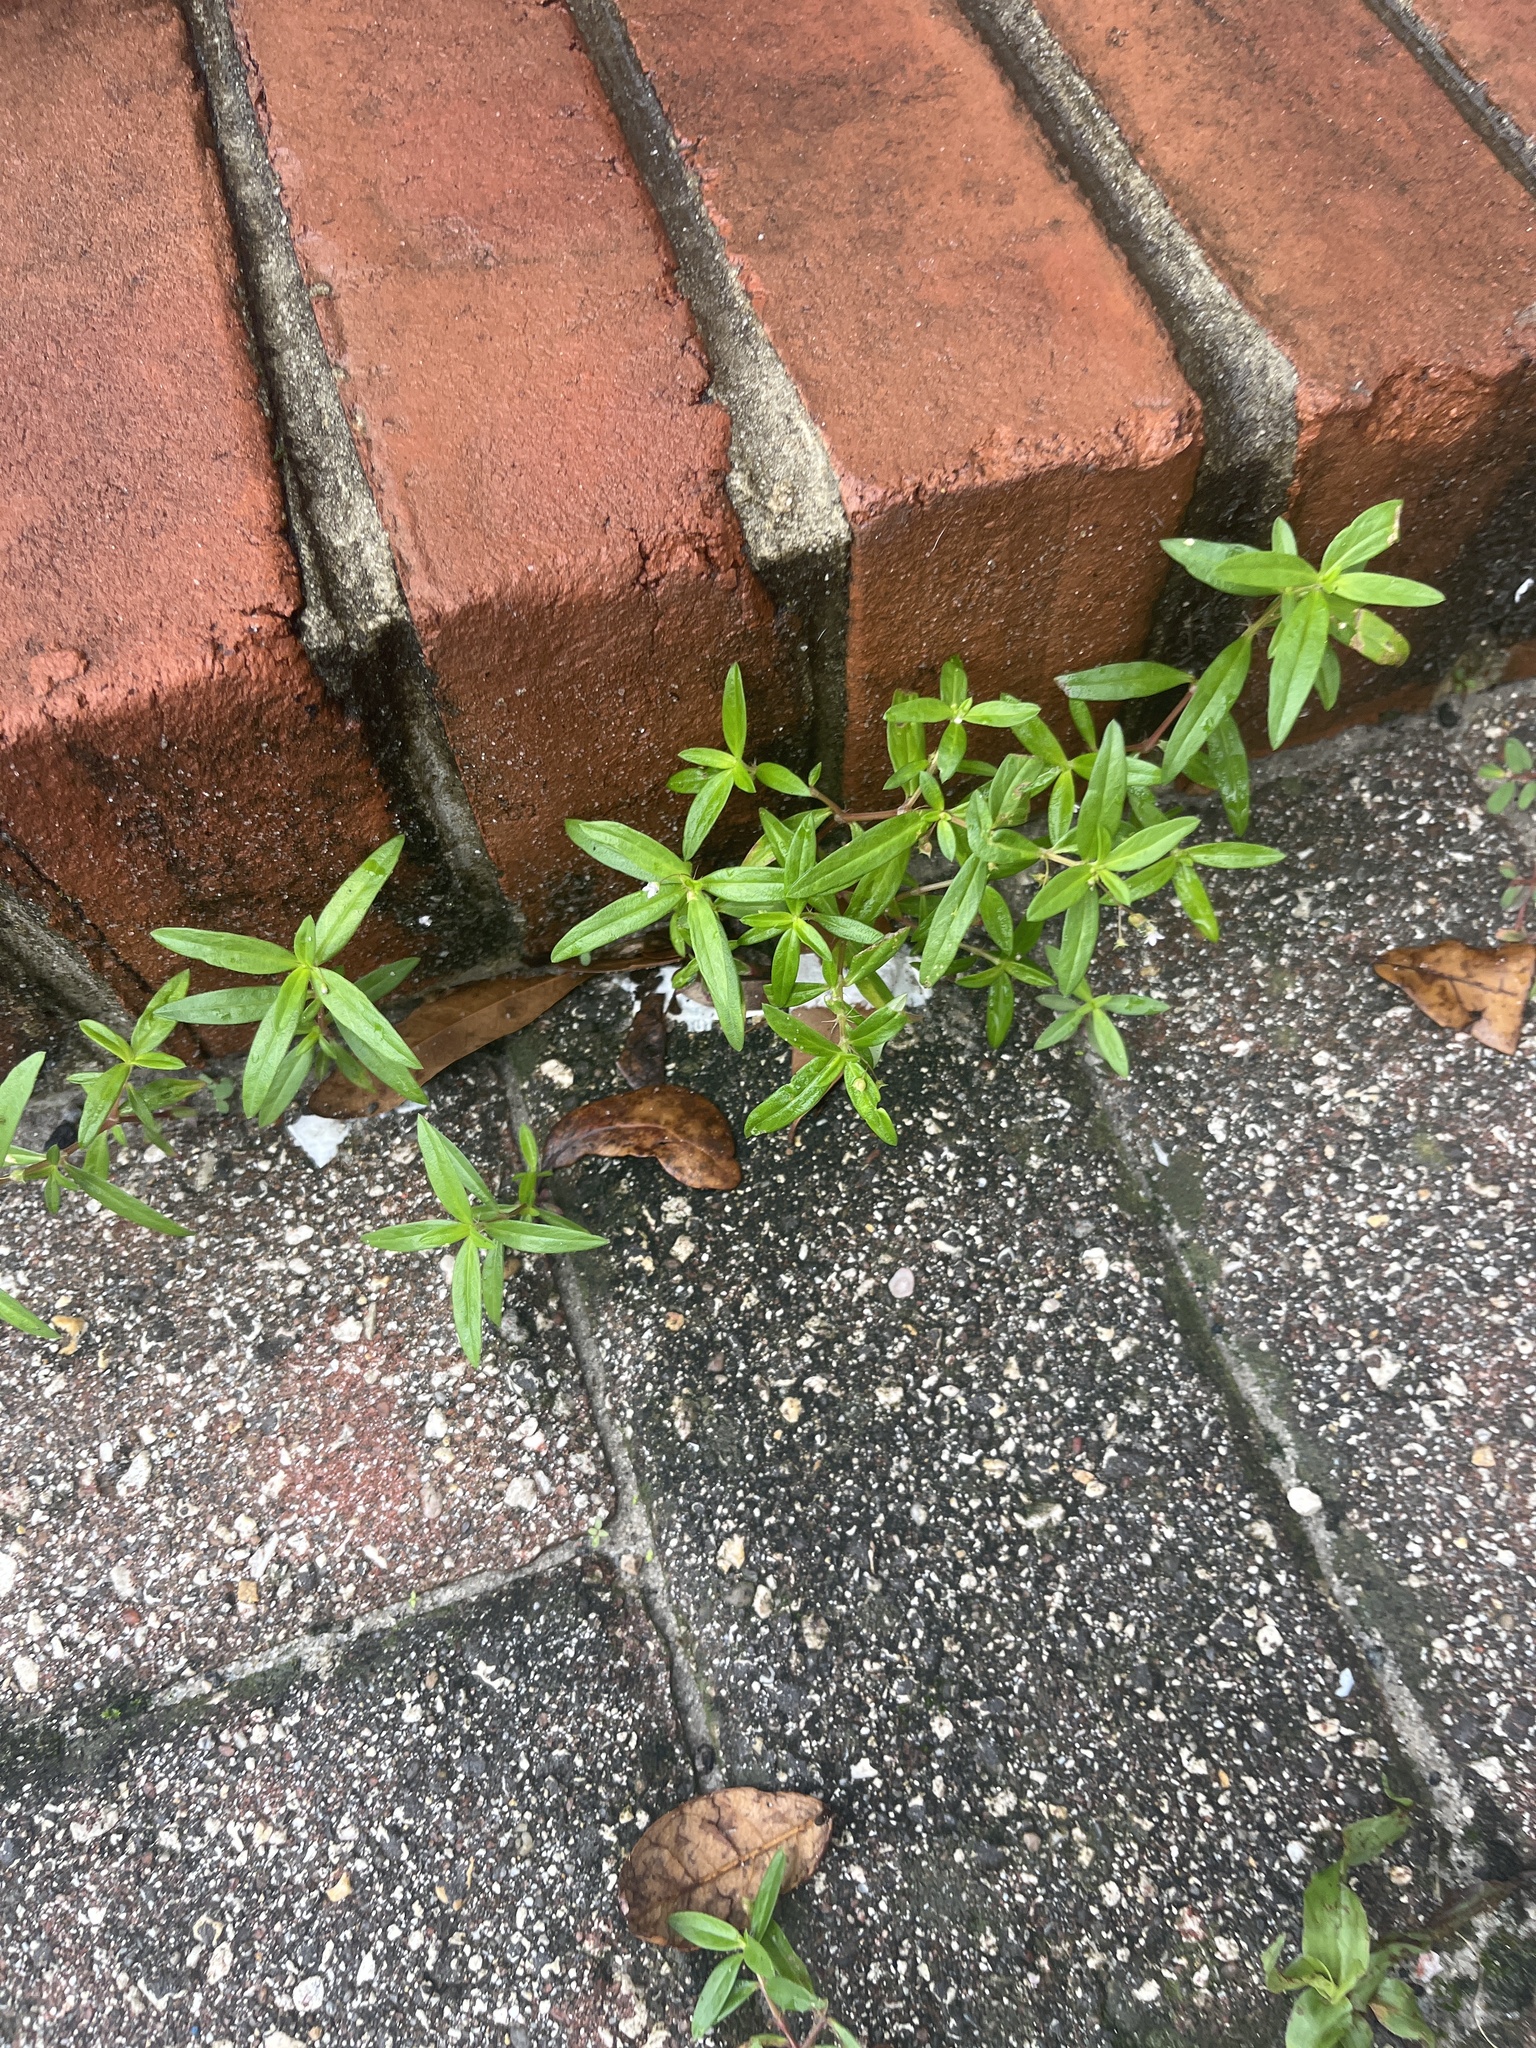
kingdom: Plantae
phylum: Tracheophyta
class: Magnoliopsida
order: Gentianales
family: Rubiaceae
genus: Oldenlandia
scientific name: Oldenlandia corymbosa
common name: Flat-top mille graines
